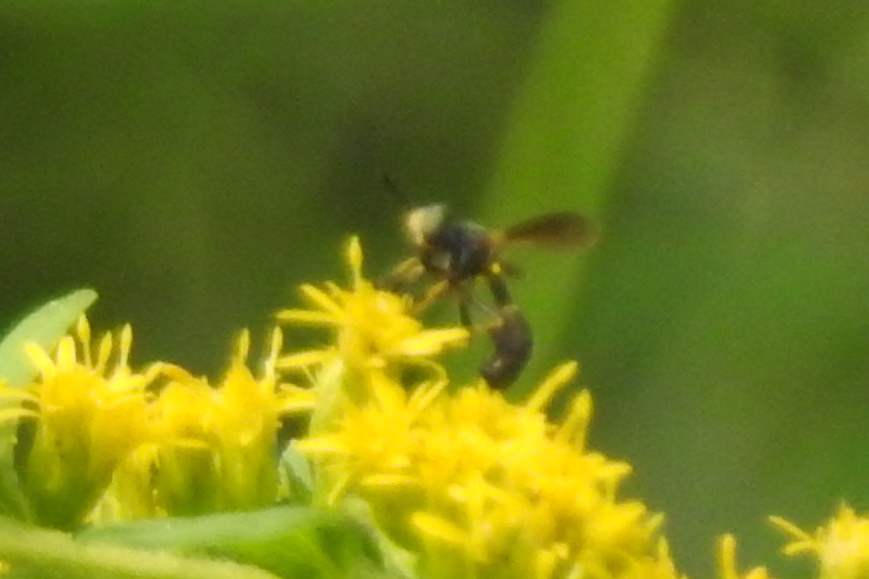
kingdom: Animalia
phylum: Arthropoda
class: Insecta
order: Diptera
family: Conopidae
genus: Physoconops
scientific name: Physoconops obscuripennis
